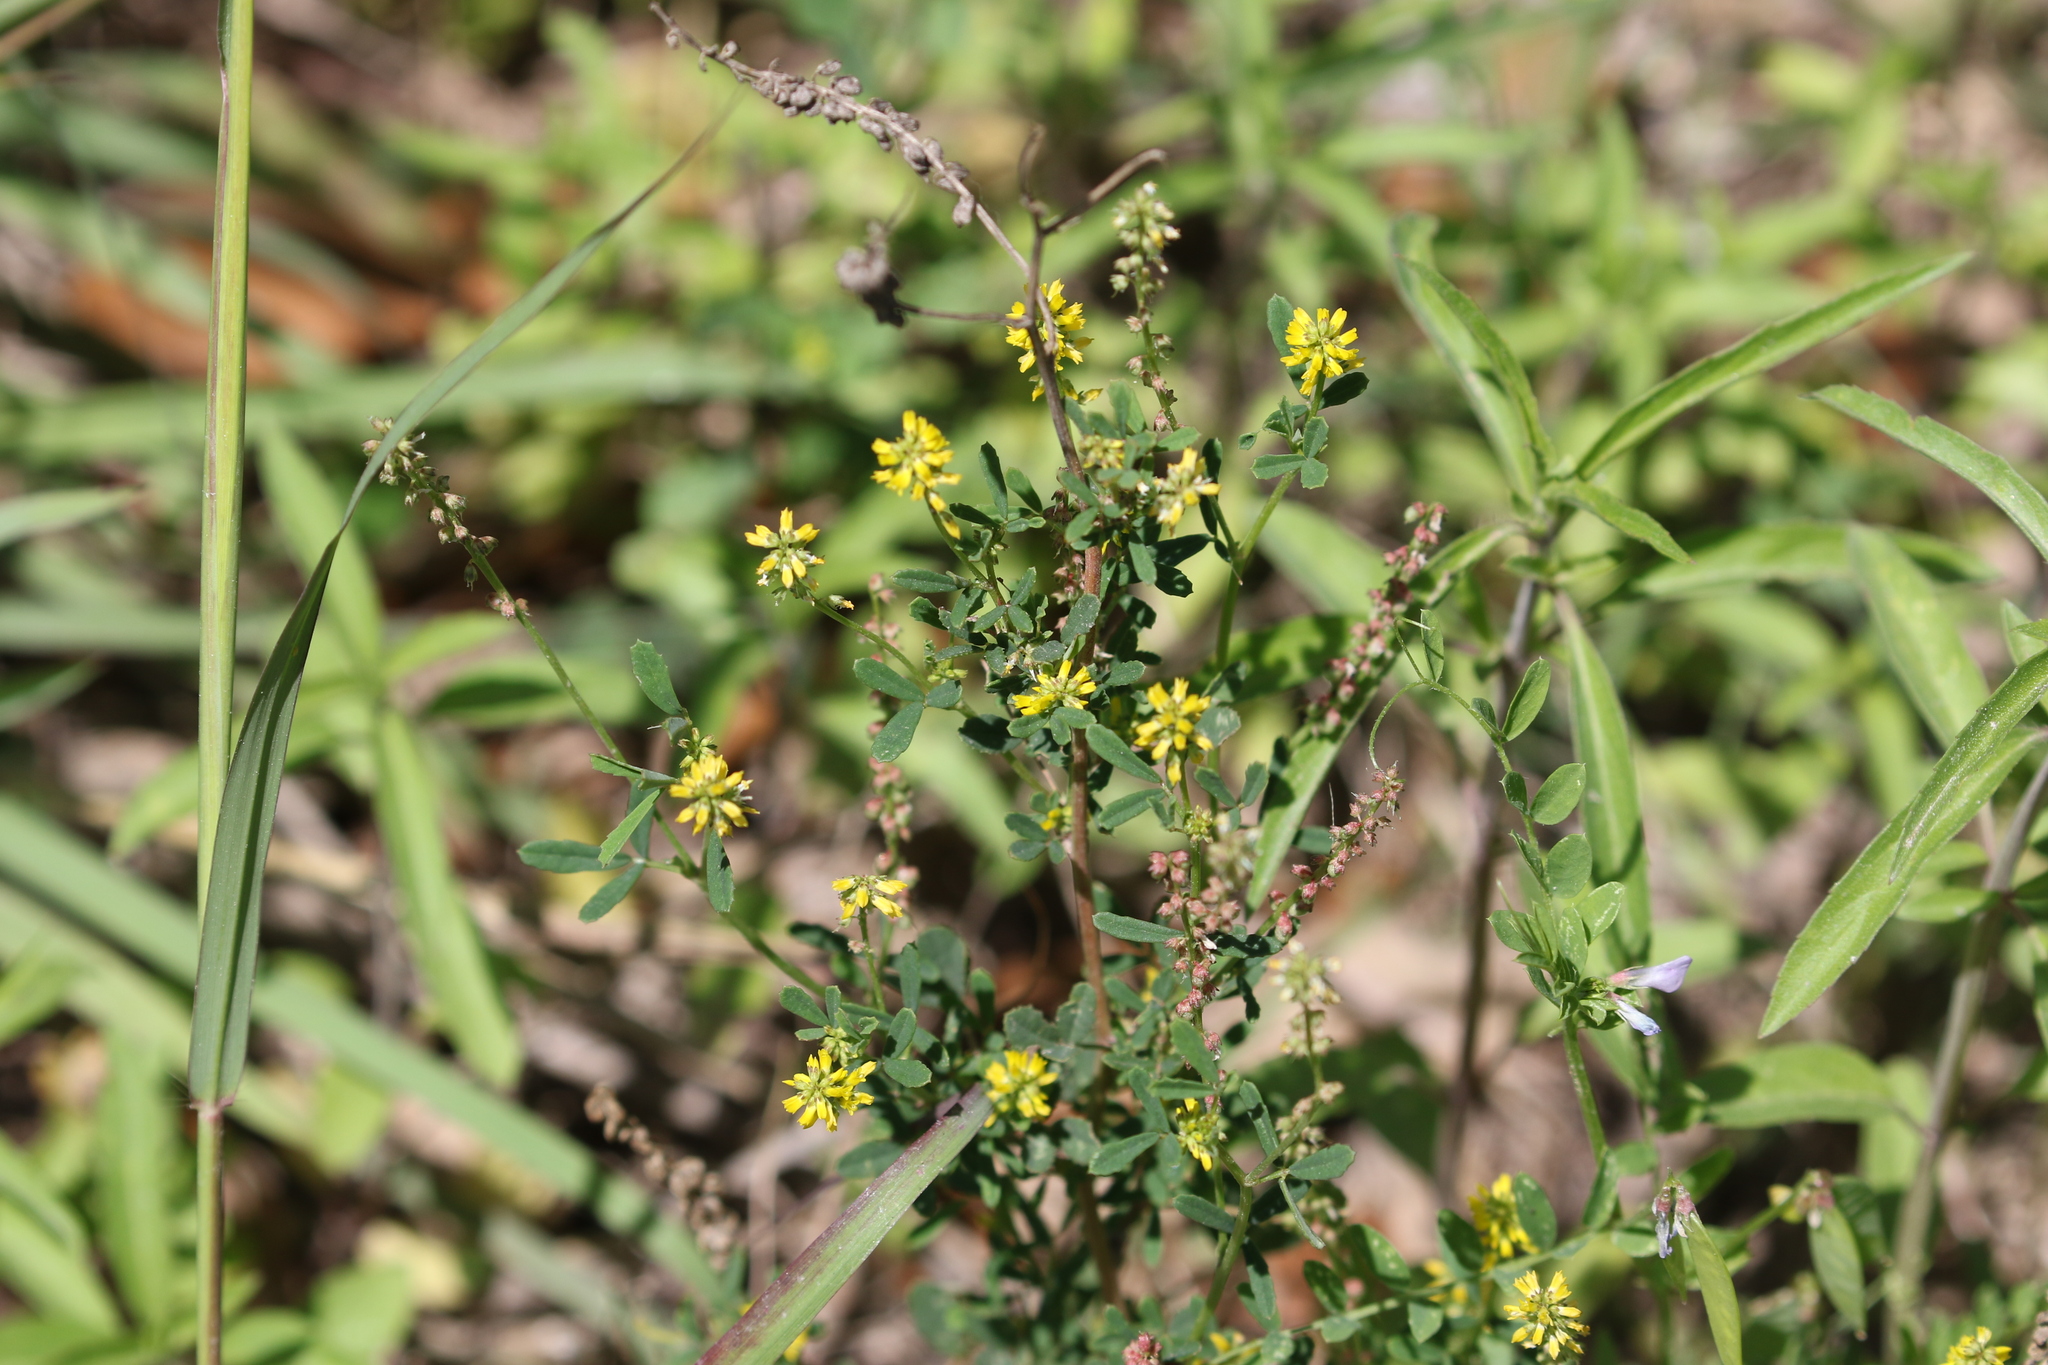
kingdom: Plantae
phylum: Tracheophyta
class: Magnoliopsida
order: Fabales
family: Fabaceae
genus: Melilotus
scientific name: Melilotus indicus
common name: Small melilot
